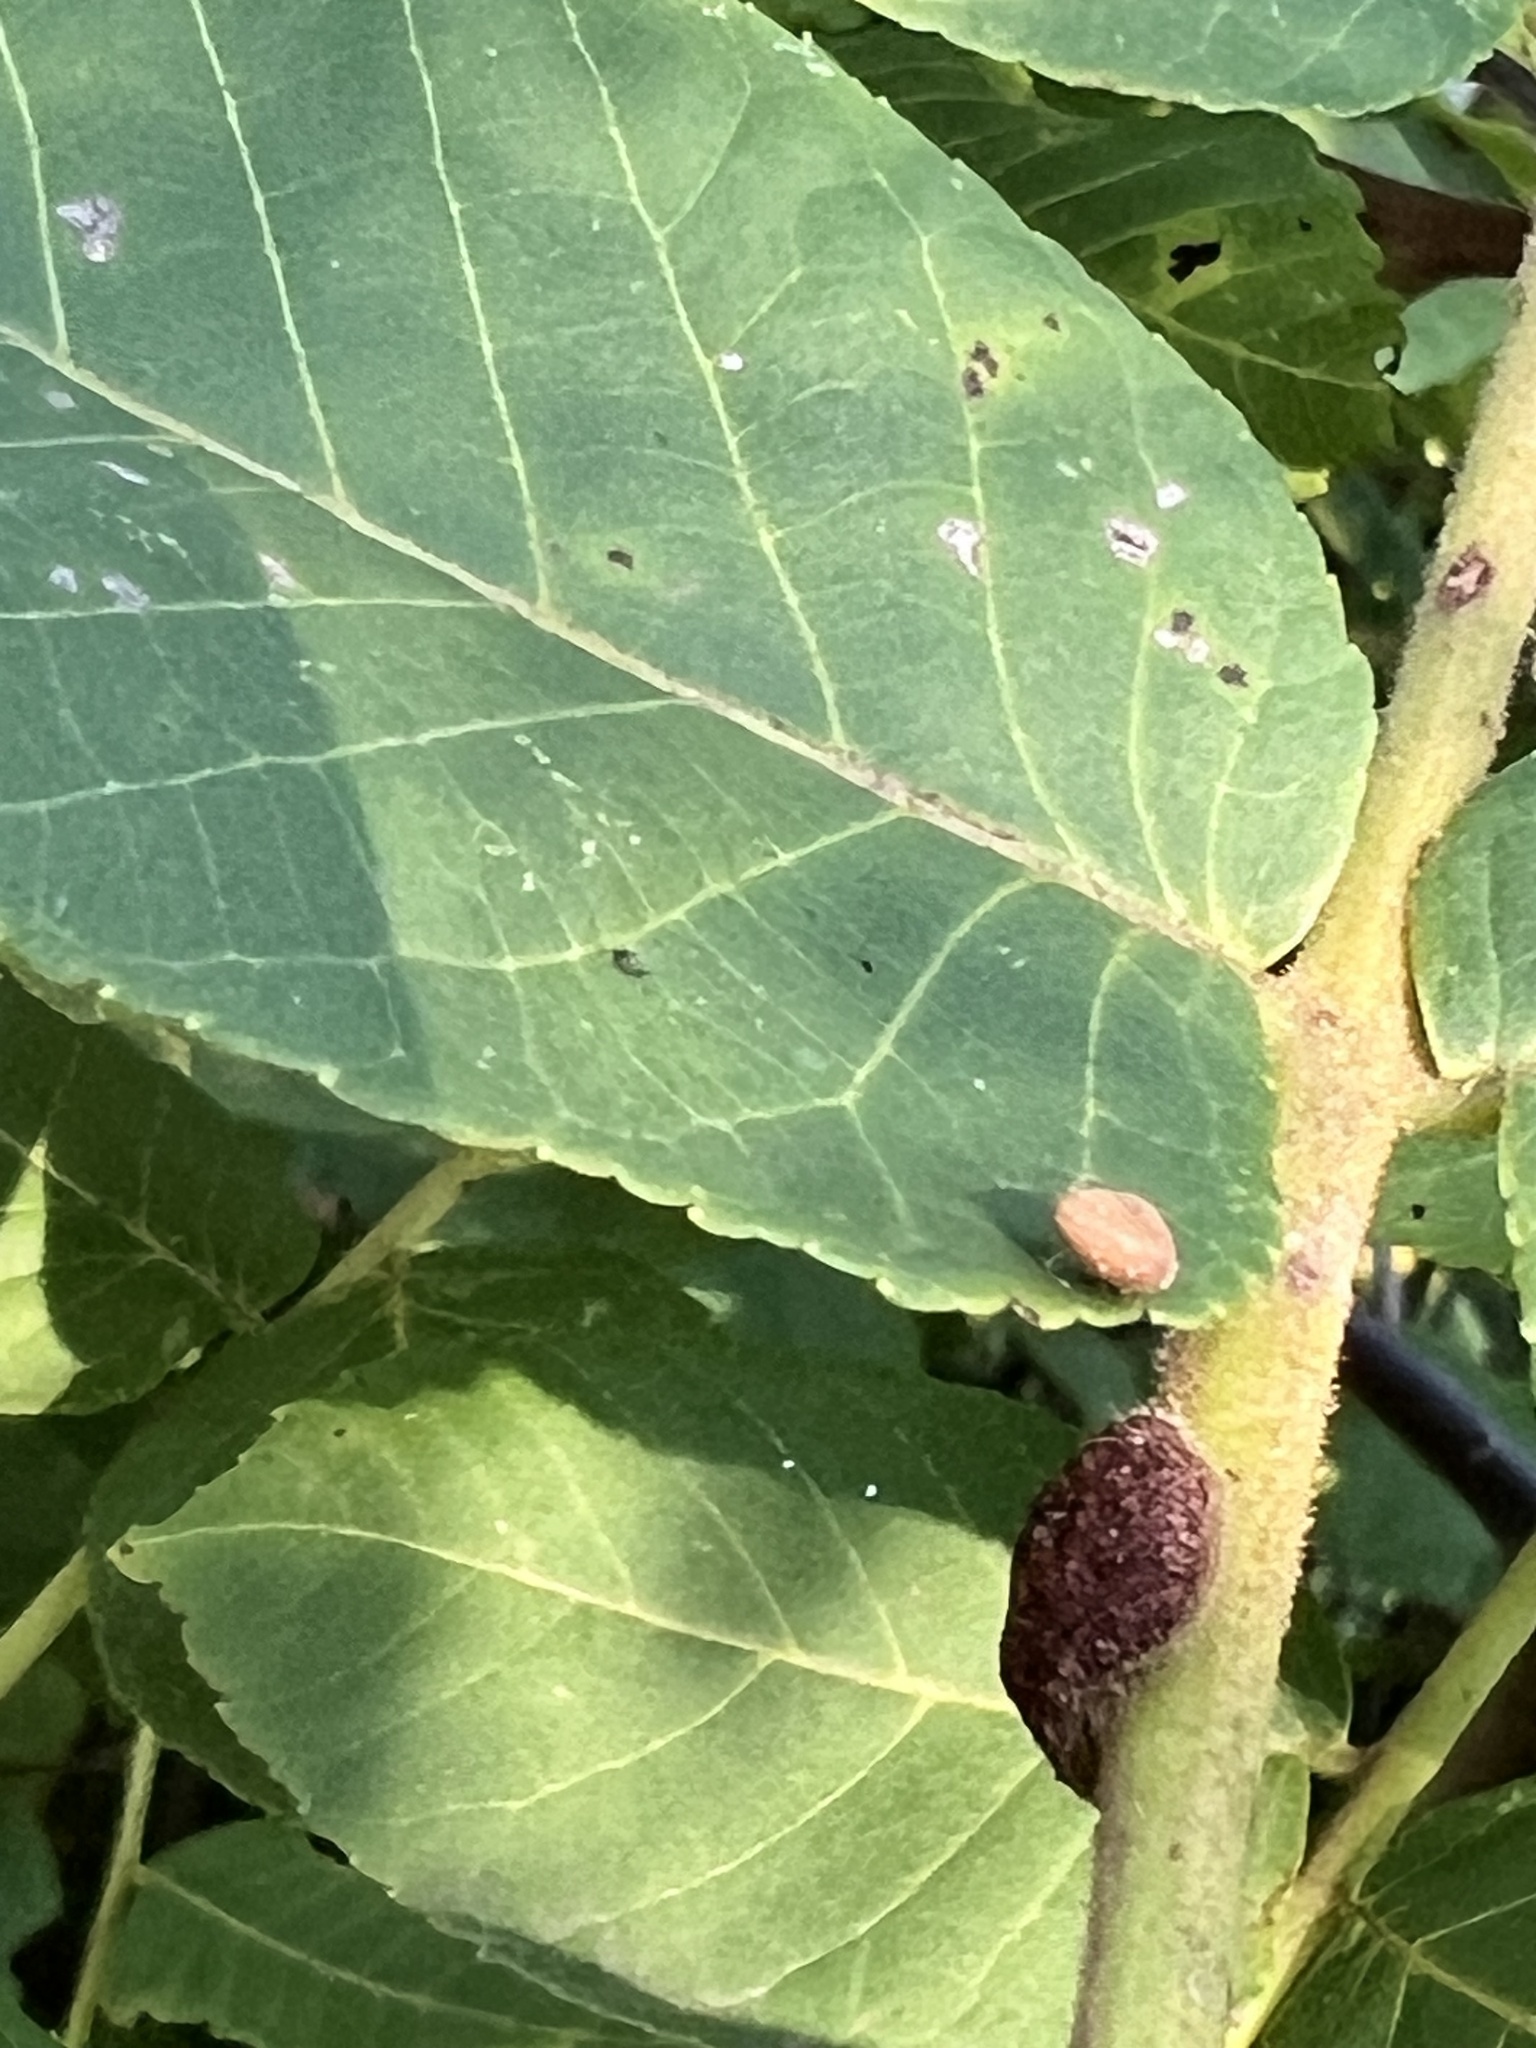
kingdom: Animalia
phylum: Arthropoda
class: Arachnida
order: Trombidiformes
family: Eriophyidae
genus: Aceria
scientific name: Aceria
